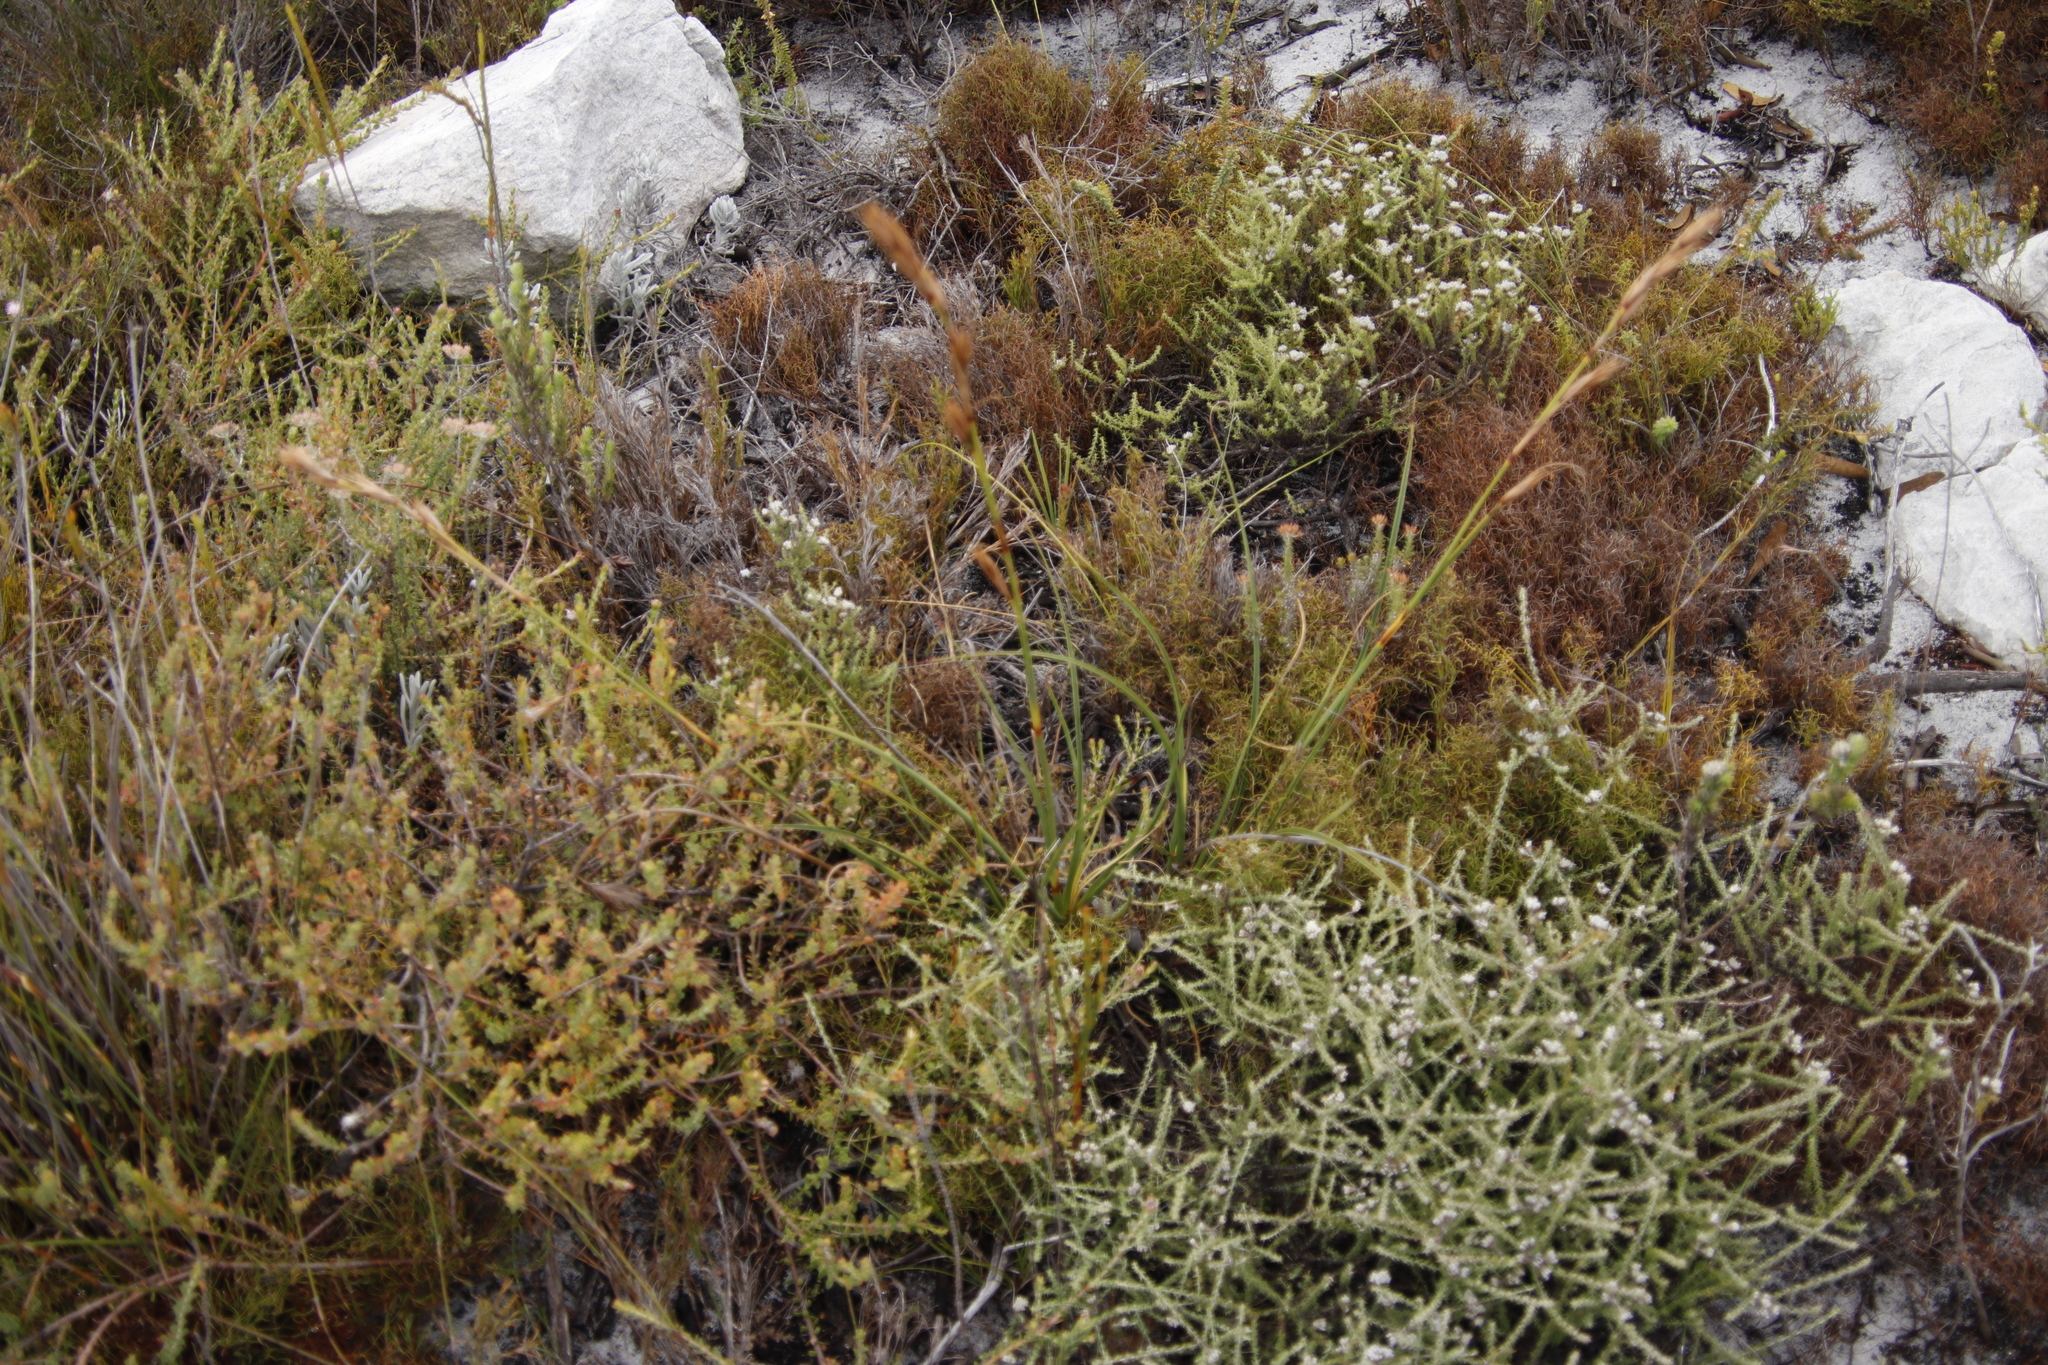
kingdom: Plantae
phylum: Tracheophyta
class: Liliopsida
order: Poales
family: Cyperaceae
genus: Tetraria
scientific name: Tetraria eximia
